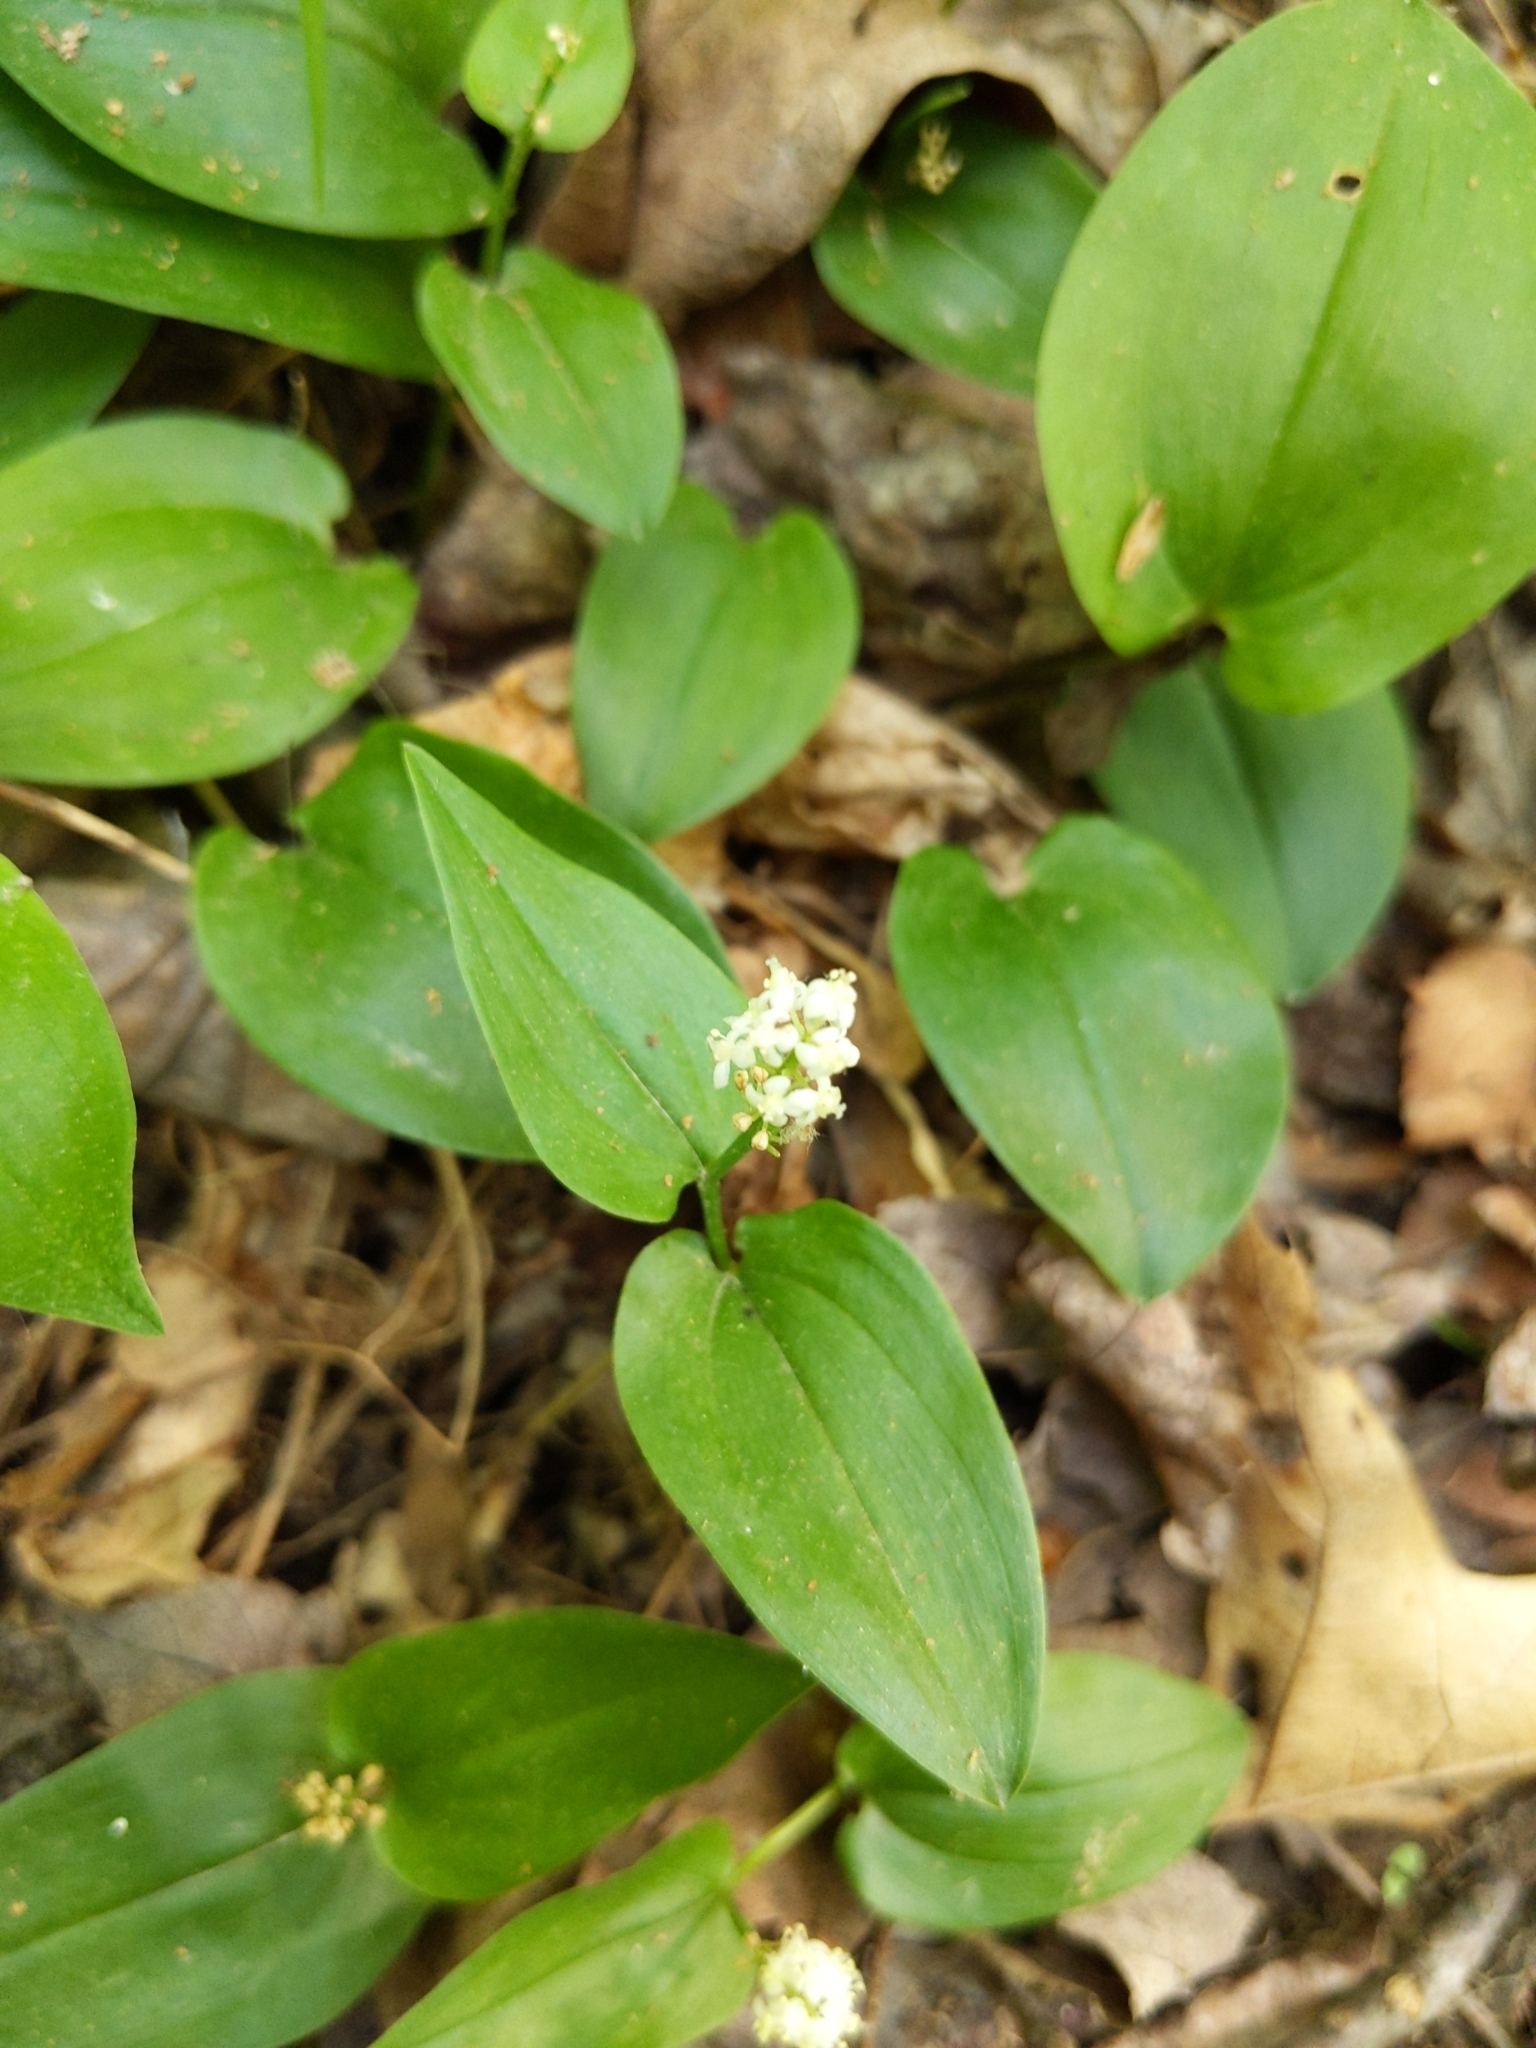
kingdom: Plantae
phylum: Tracheophyta
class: Liliopsida
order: Asparagales
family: Asparagaceae
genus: Maianthemum
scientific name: Maianthemum canadense
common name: False lily-of-the-valley
